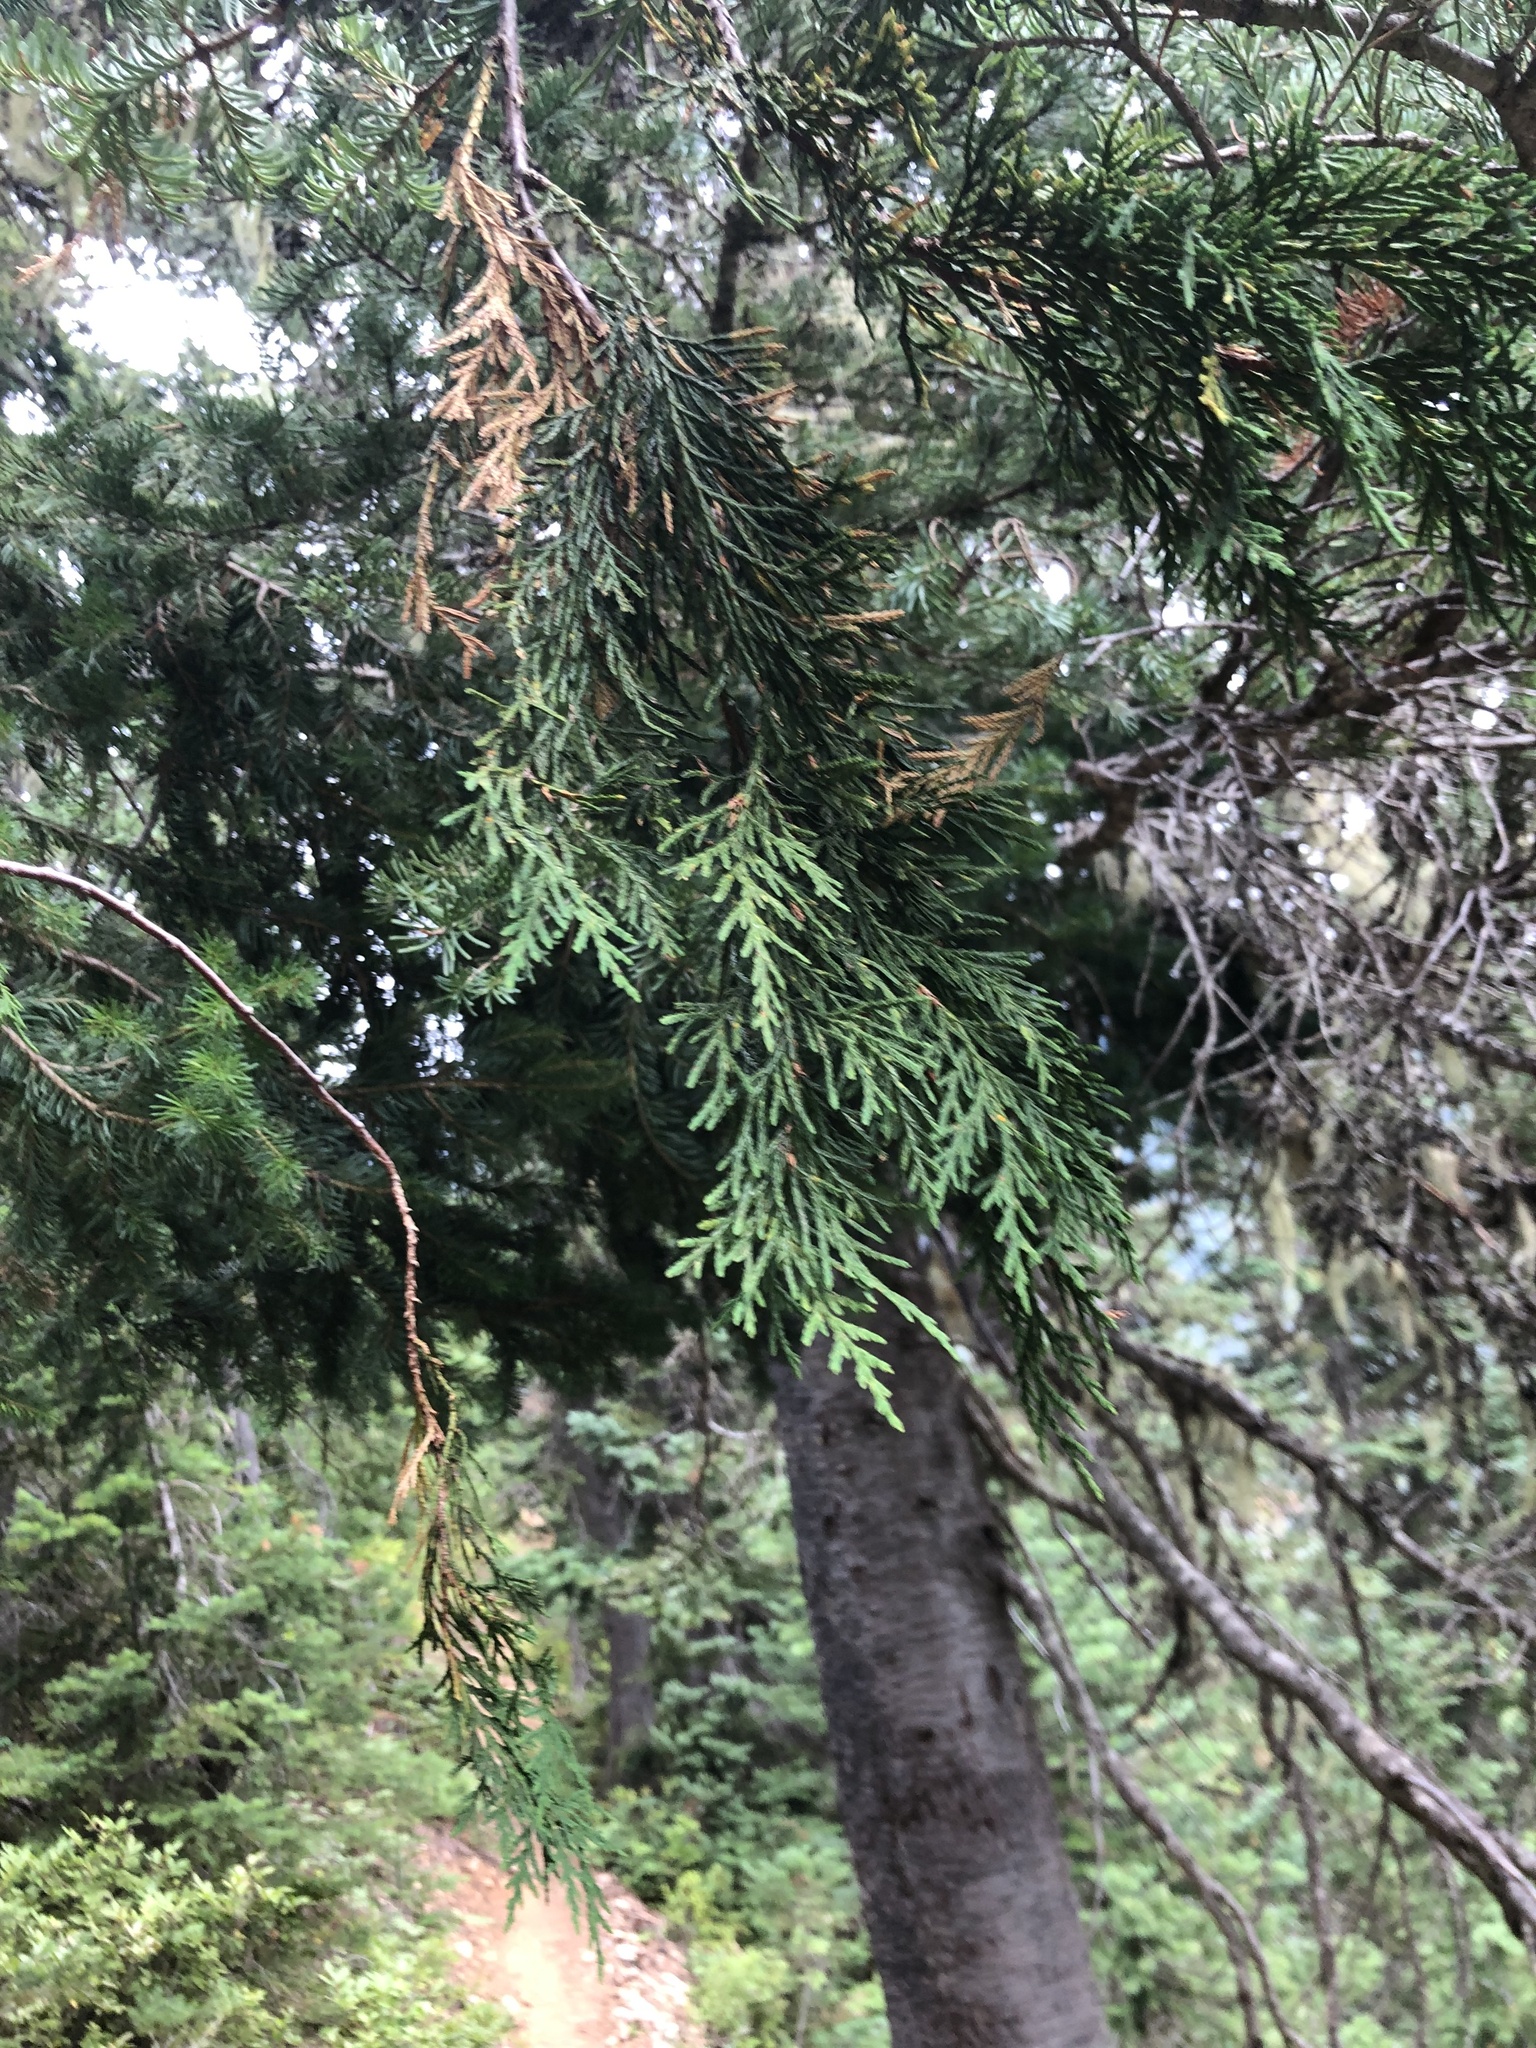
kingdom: Plantae
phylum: Tracheophyta
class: Pinopsida
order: Pinales
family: Cupressaceae
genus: Xanthocyparis
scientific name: Xanthocyparis nootkatensis
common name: Nootka cypress
